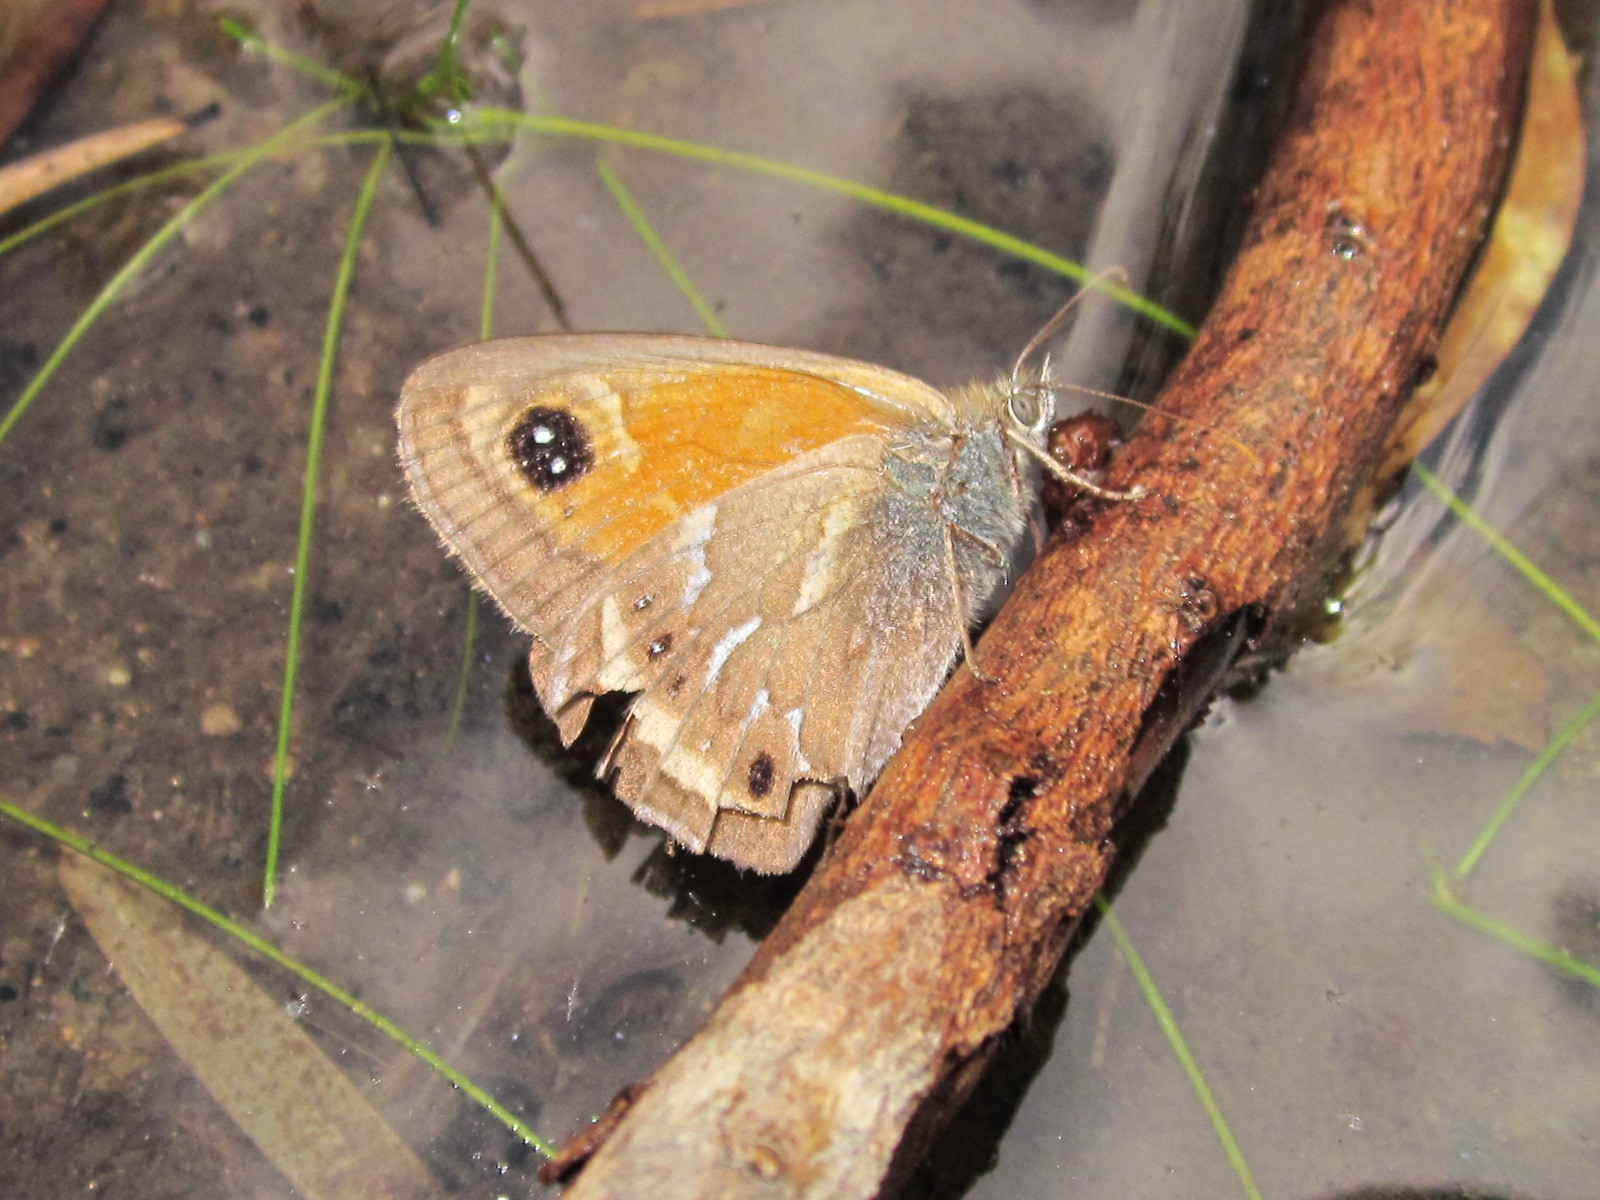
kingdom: Animalia
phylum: Arthropoda
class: Insecta
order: Lepidoptera
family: Nymphalidae
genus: Neomaenas
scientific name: Neomaenas servilia
